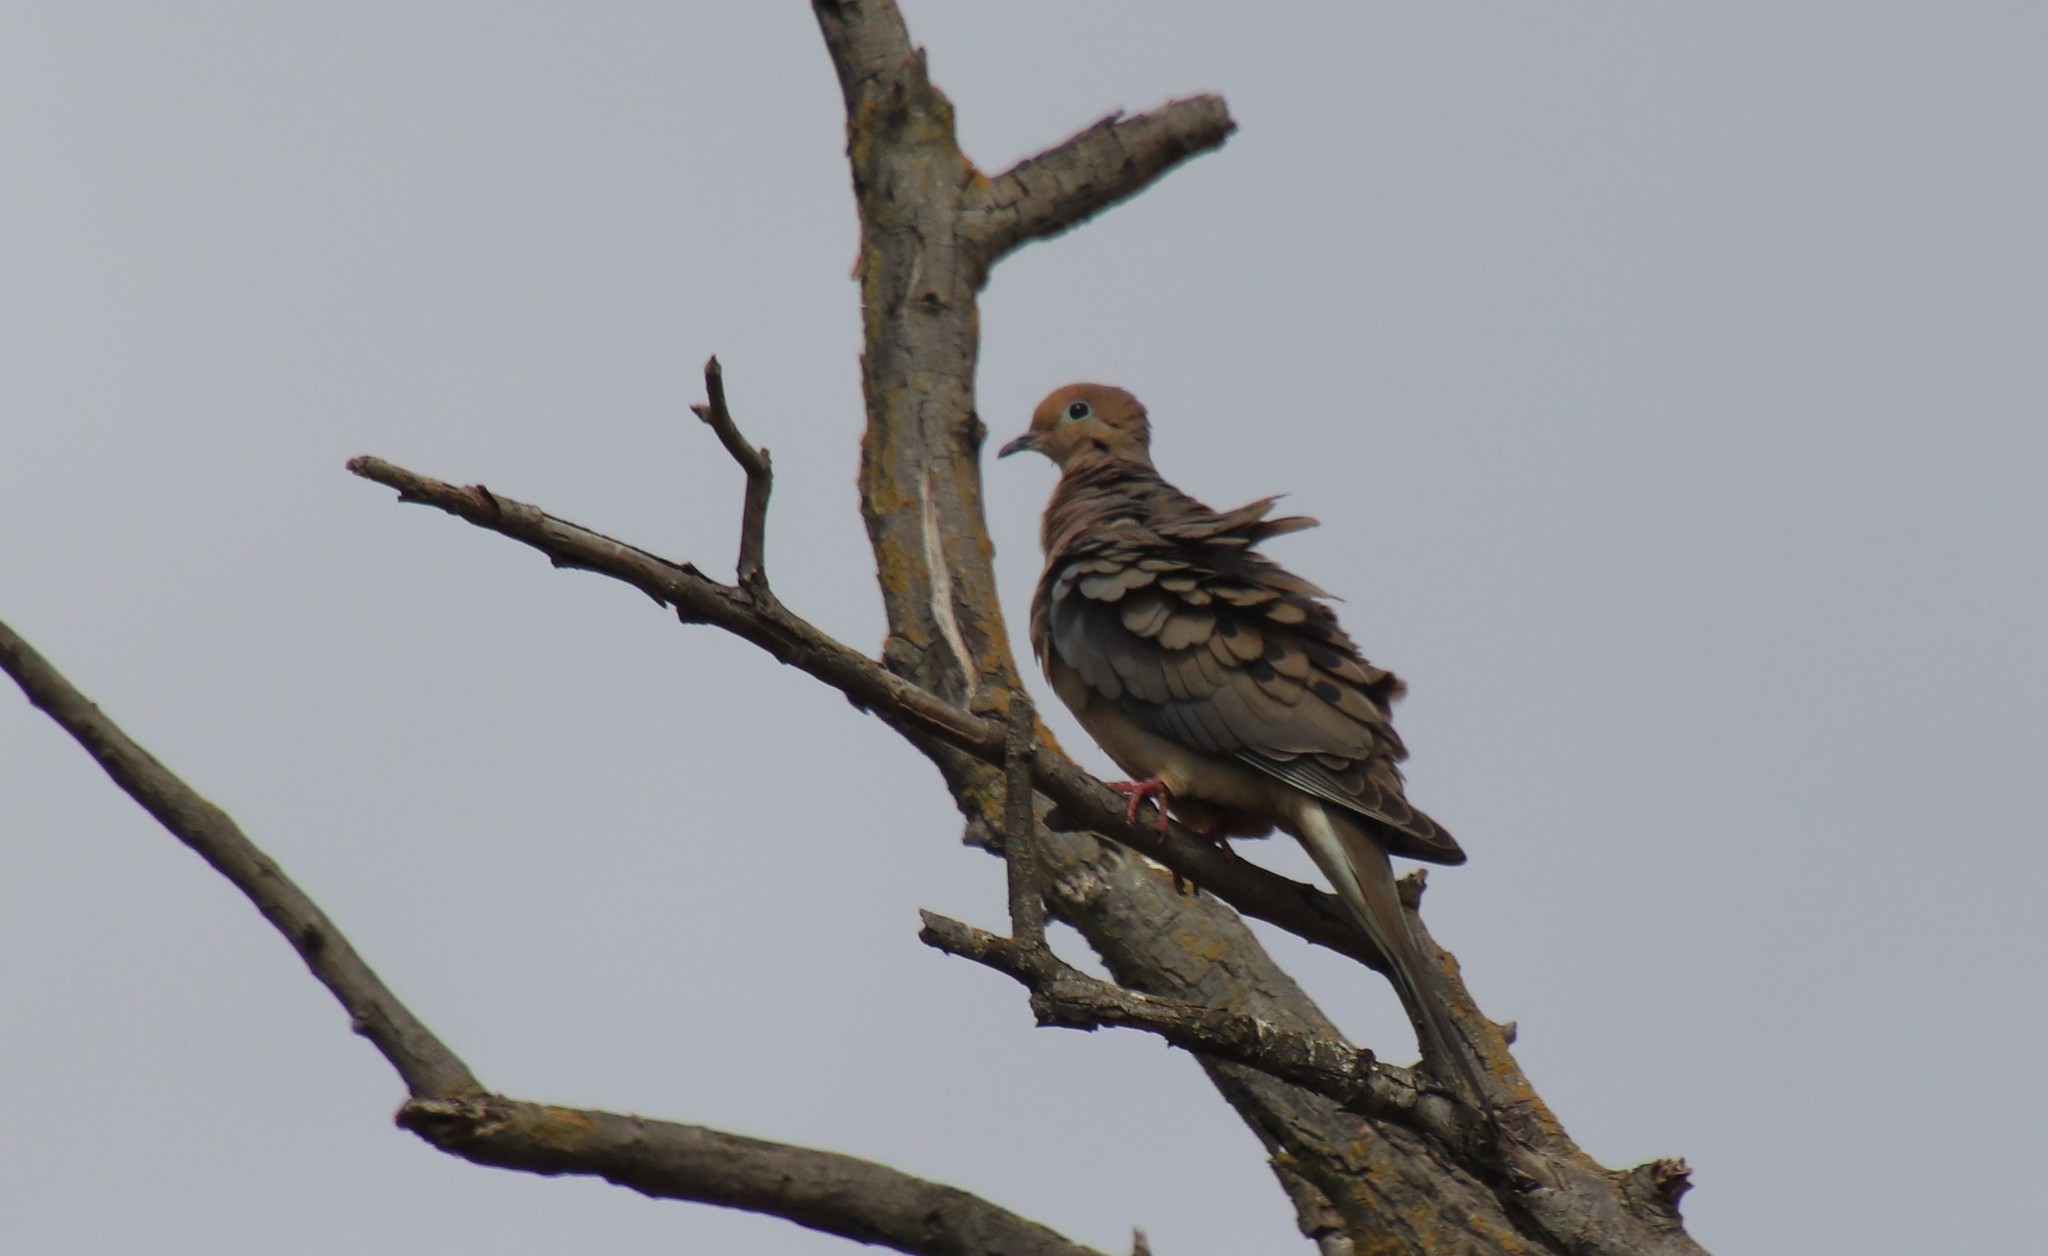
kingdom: Animalia
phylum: Chordata
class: Aves
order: Columbiformes
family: Columbidae
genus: Zenaida
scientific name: Zenaida macroura
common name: Mourning dove
